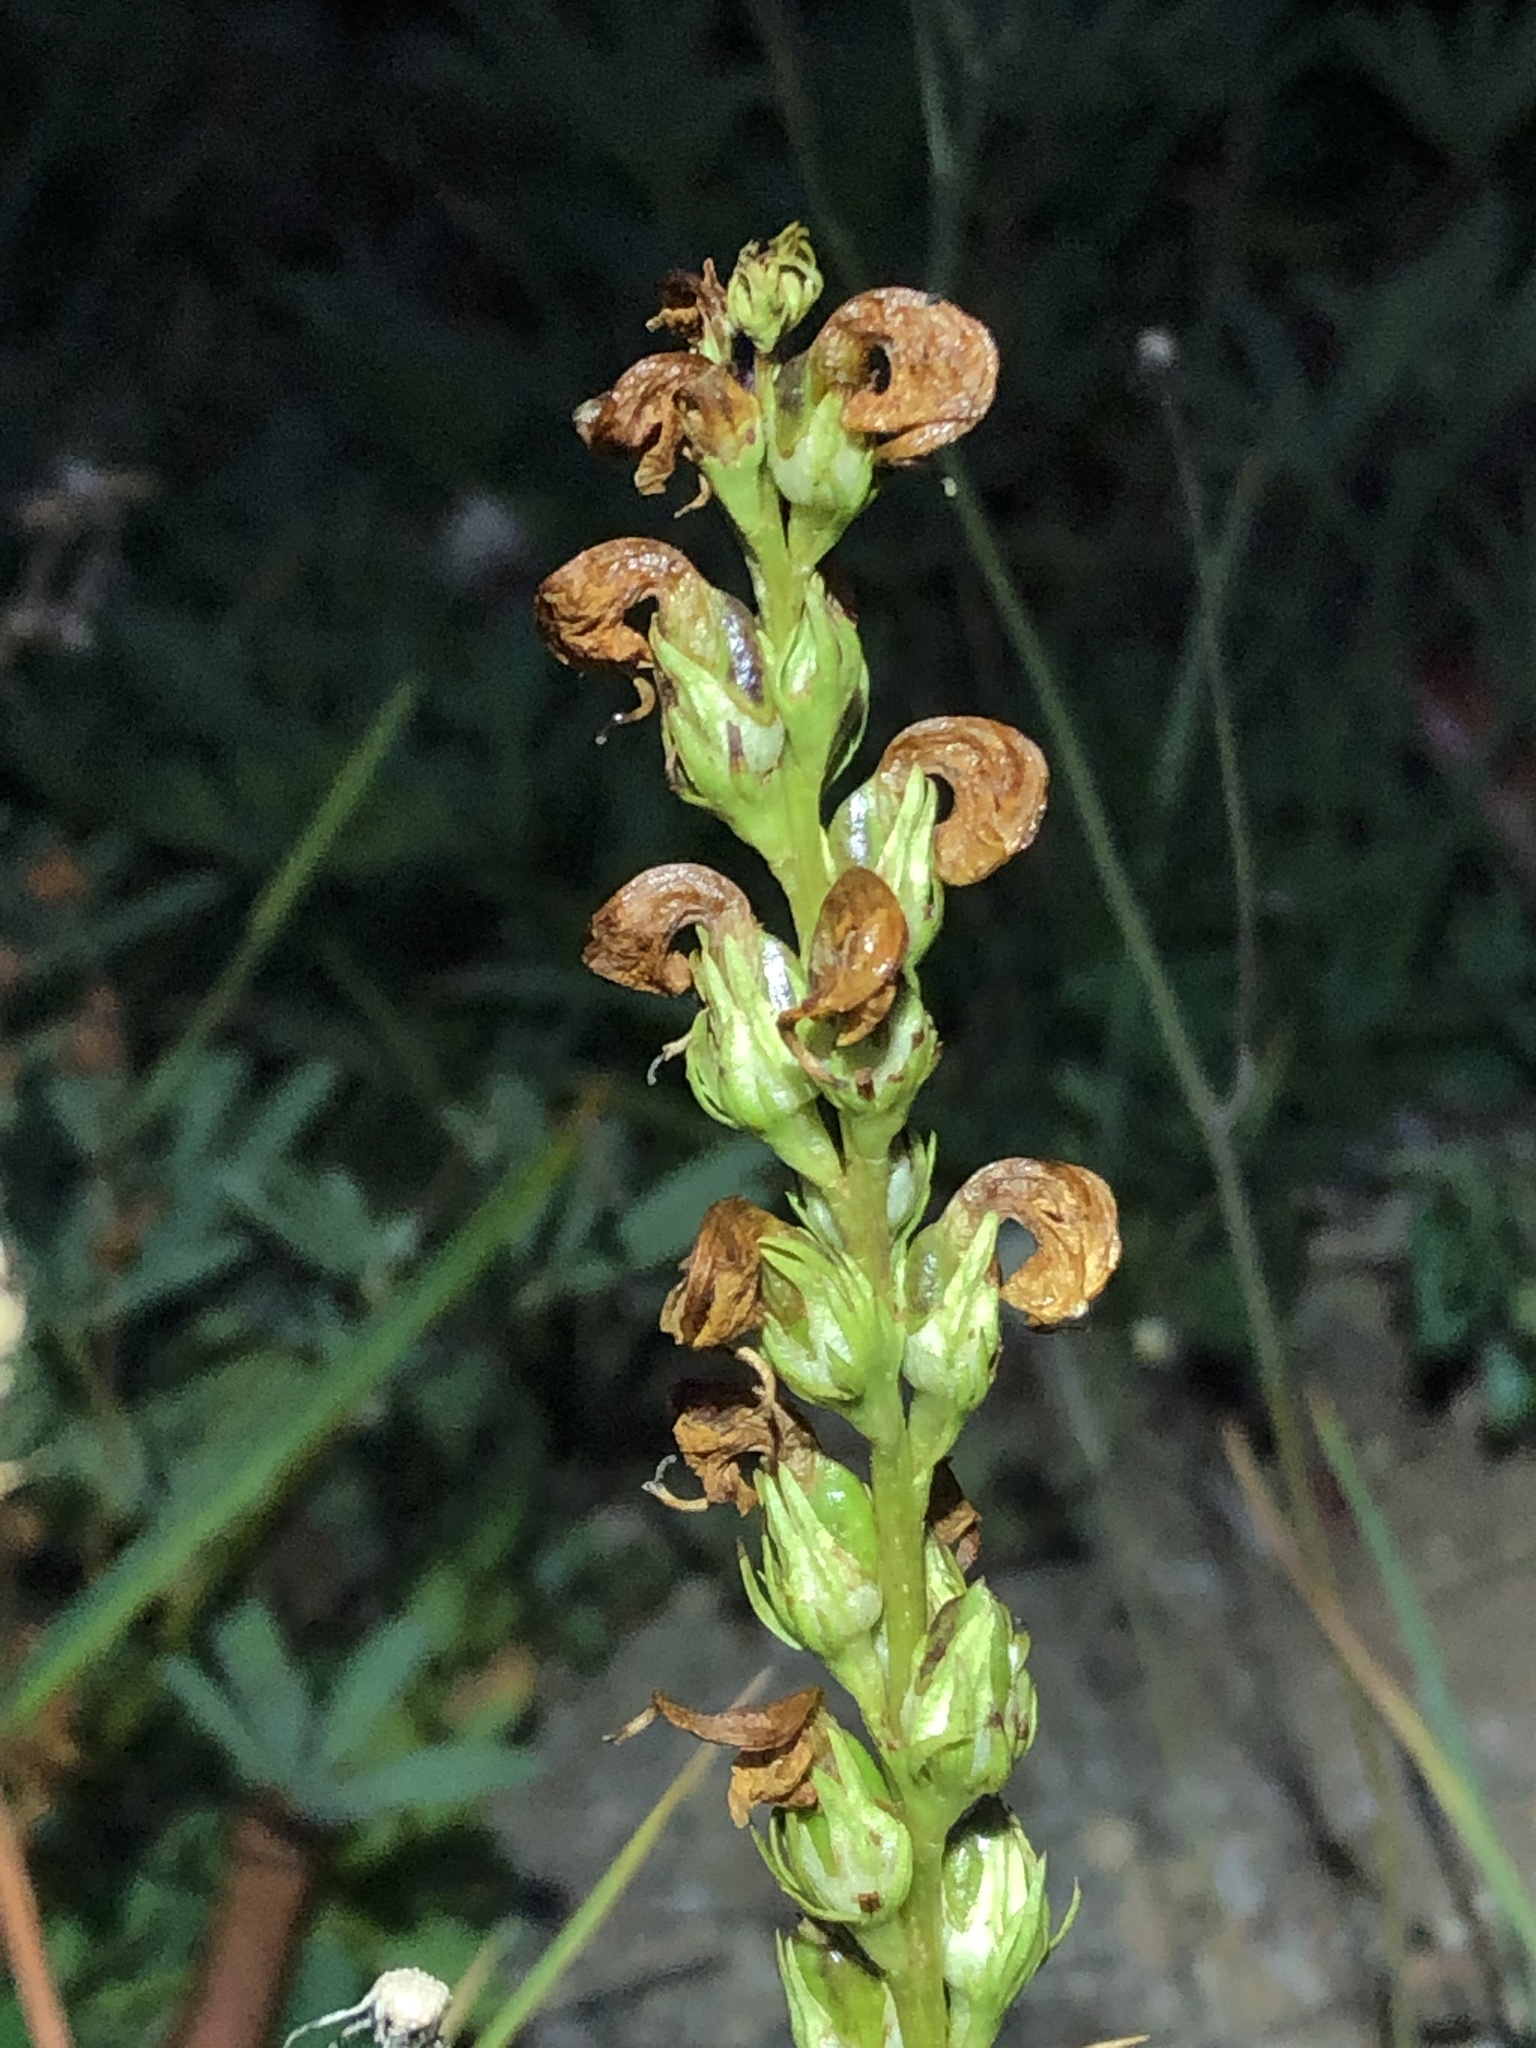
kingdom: Plantae
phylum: Tracheophyta
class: Magnoliopsida
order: Lamiales
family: Orobanchaceae
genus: Pedicularis
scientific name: Pedicularis contorta
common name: Coiled lousewort
